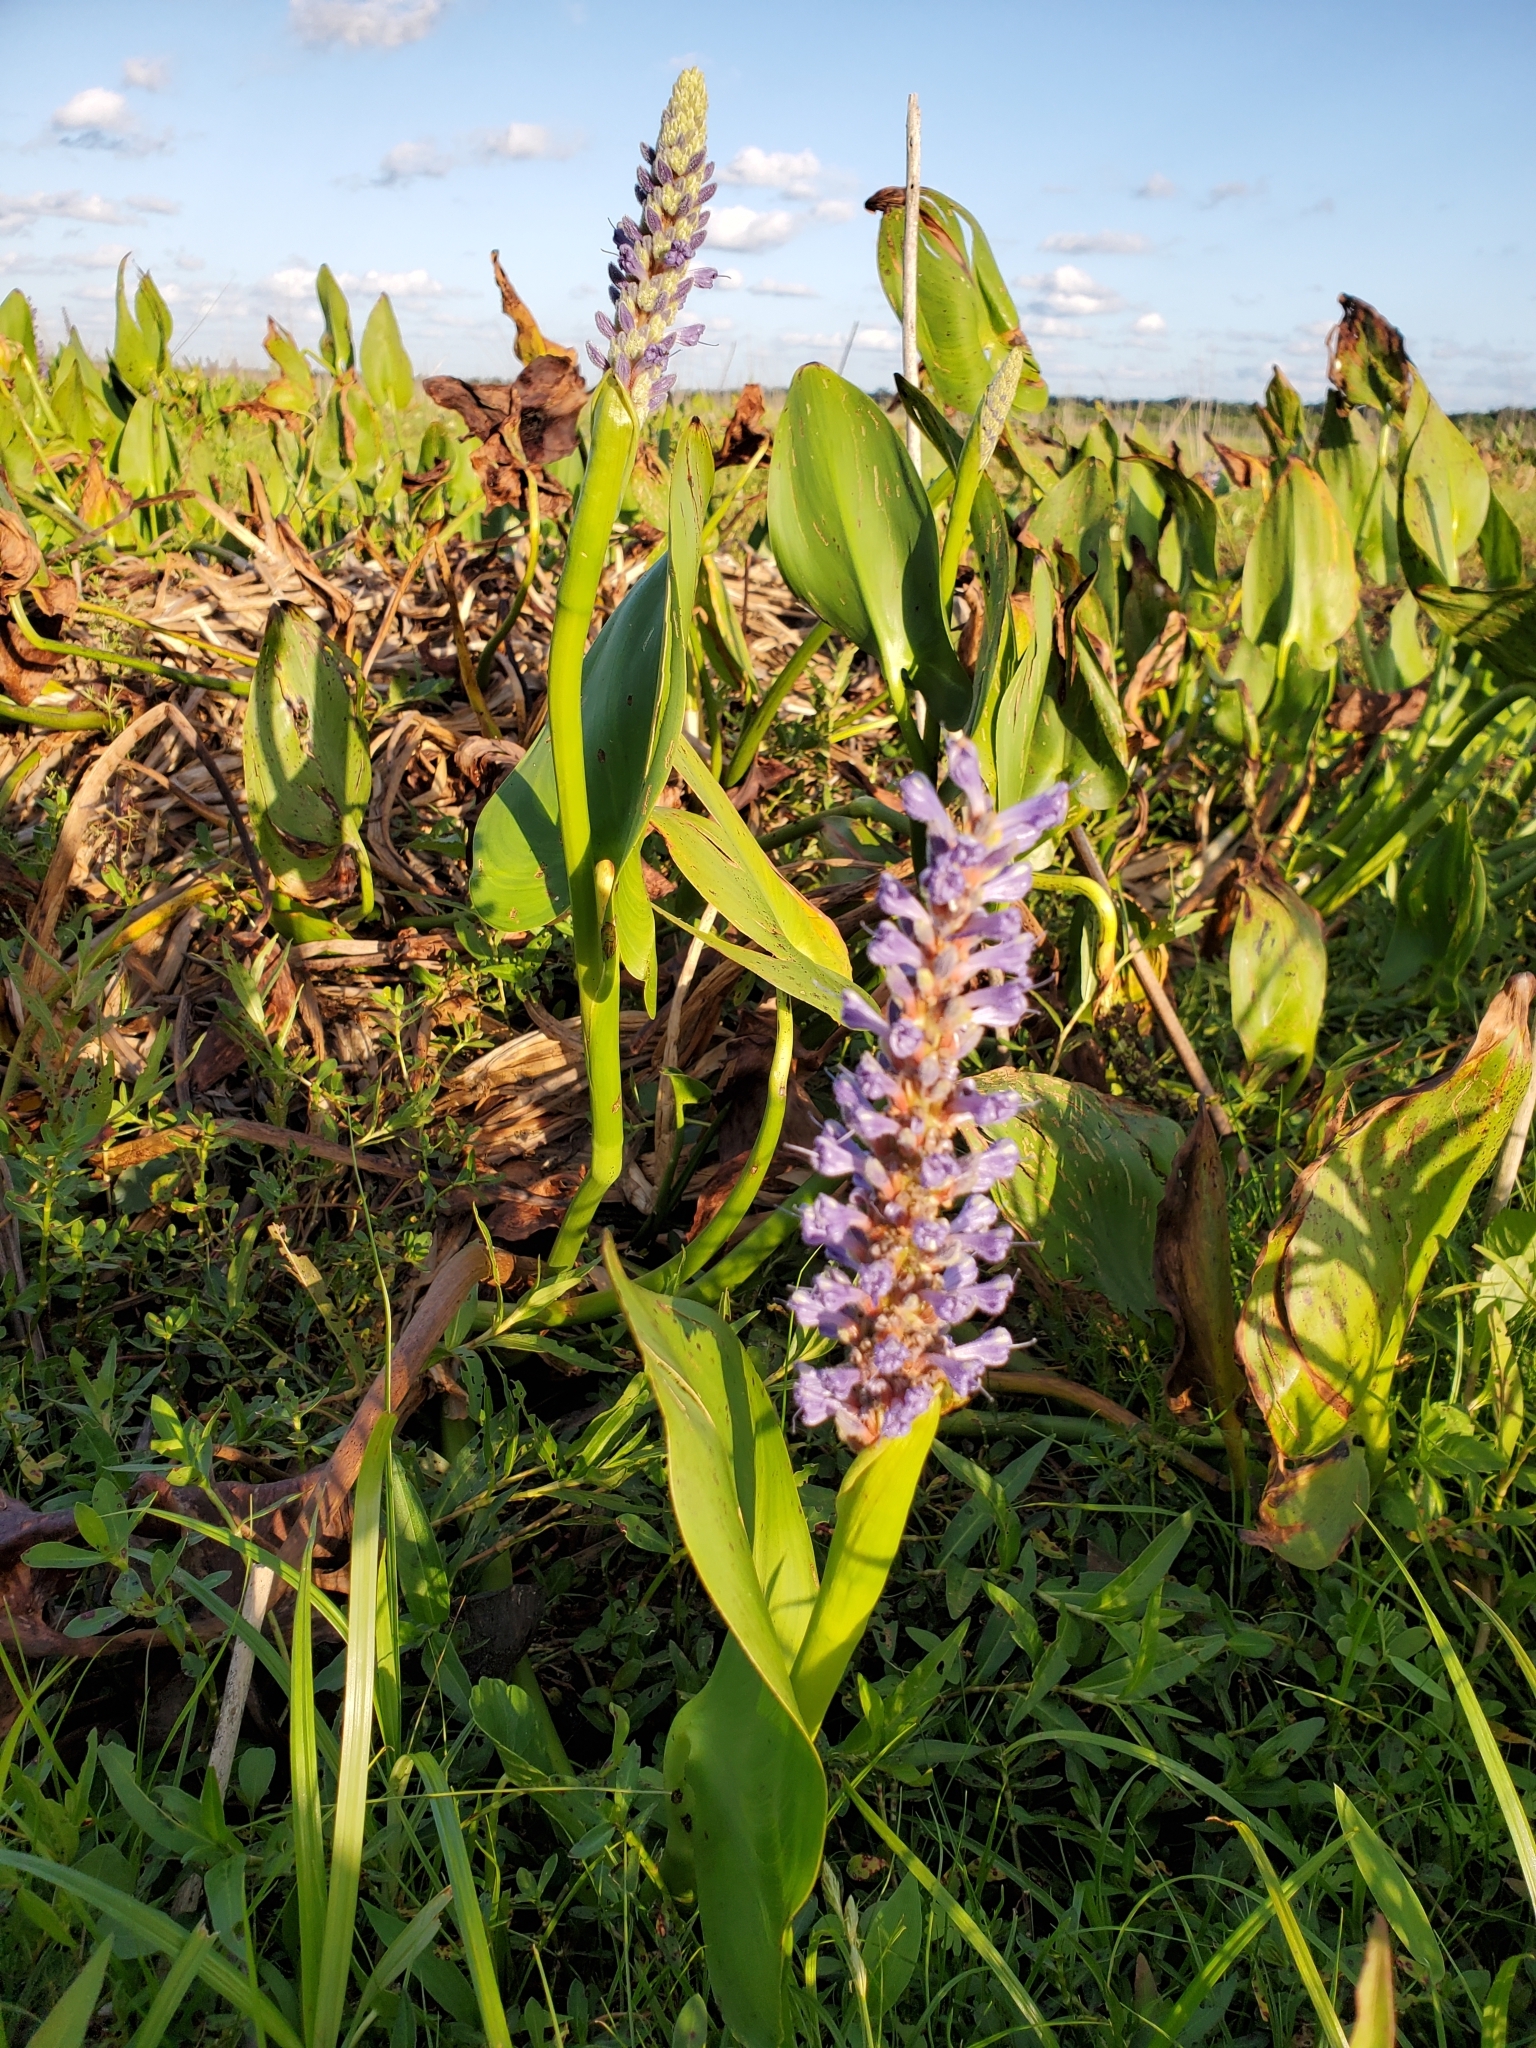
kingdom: Plantae
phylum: Tracheophyta
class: Liliopsida
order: Commelinales
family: Pontederiaceae
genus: Pontederia
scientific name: Pontederia cordata
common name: Pickerelweed
